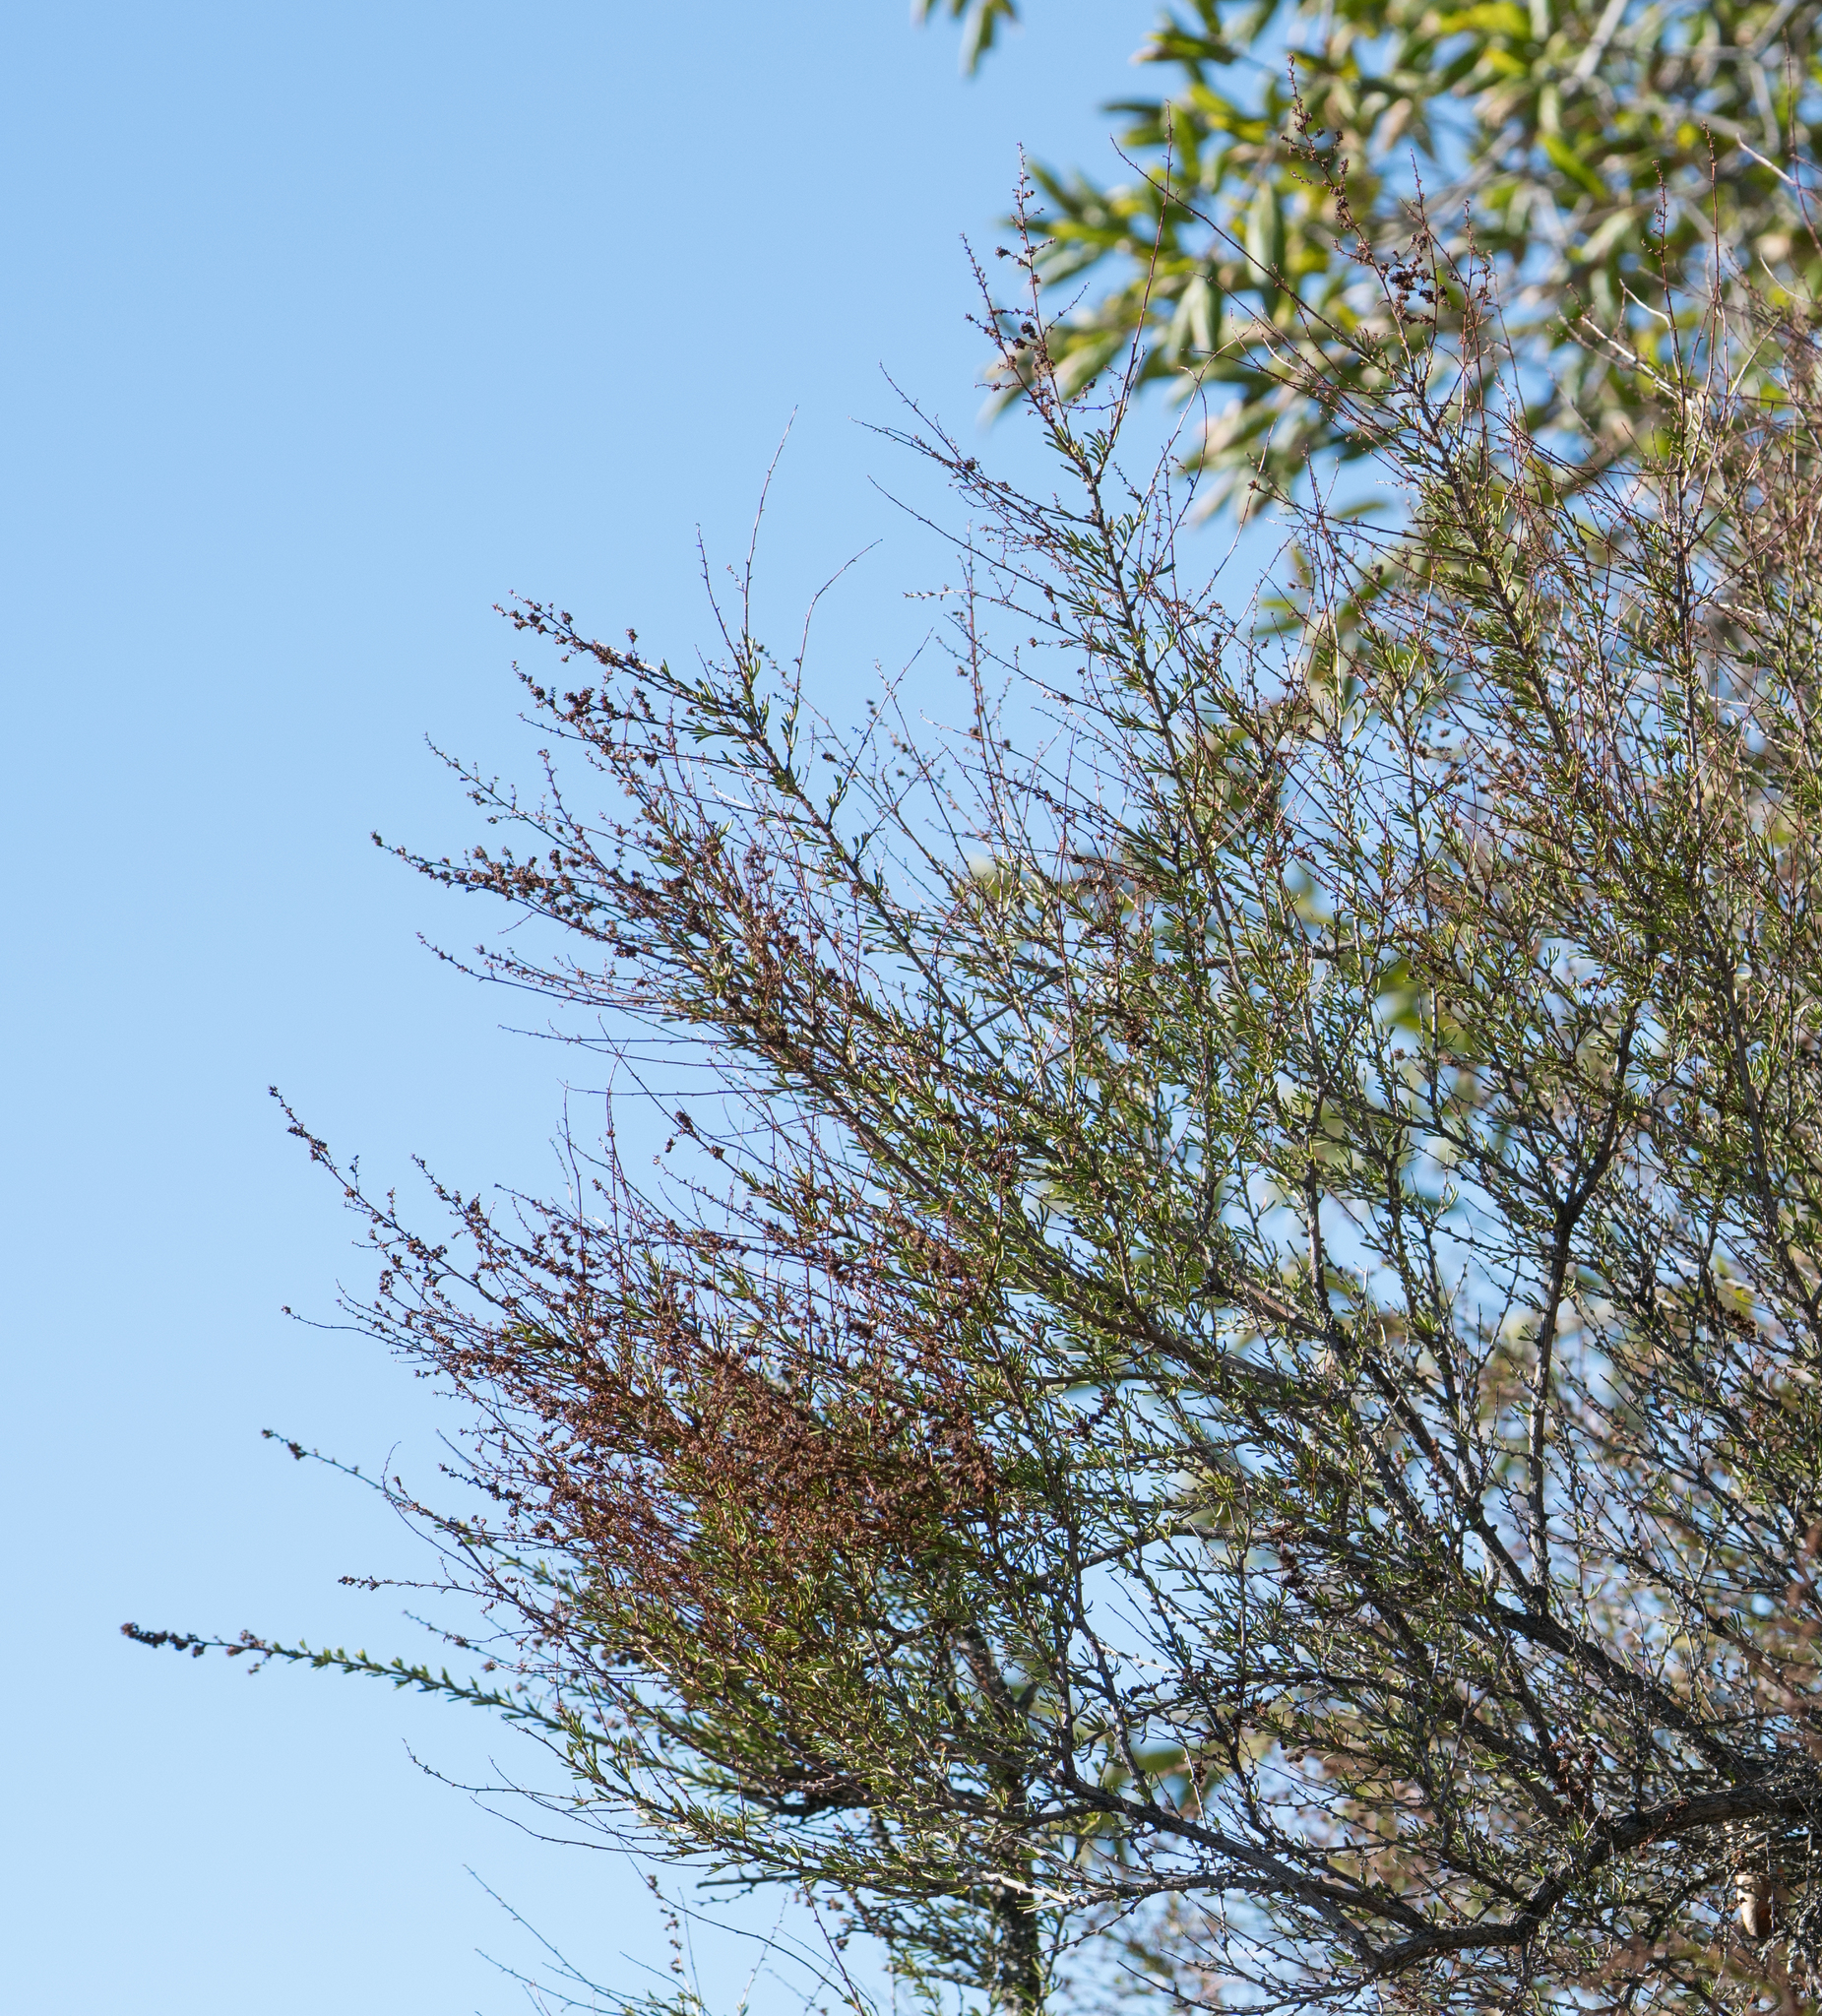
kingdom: Plantae
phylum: Tracheophyta
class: Magnoliopsida
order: Rosales
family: Rosaceae
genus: Adenostoma
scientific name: Adenostoma fasciculatum
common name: Chamise
